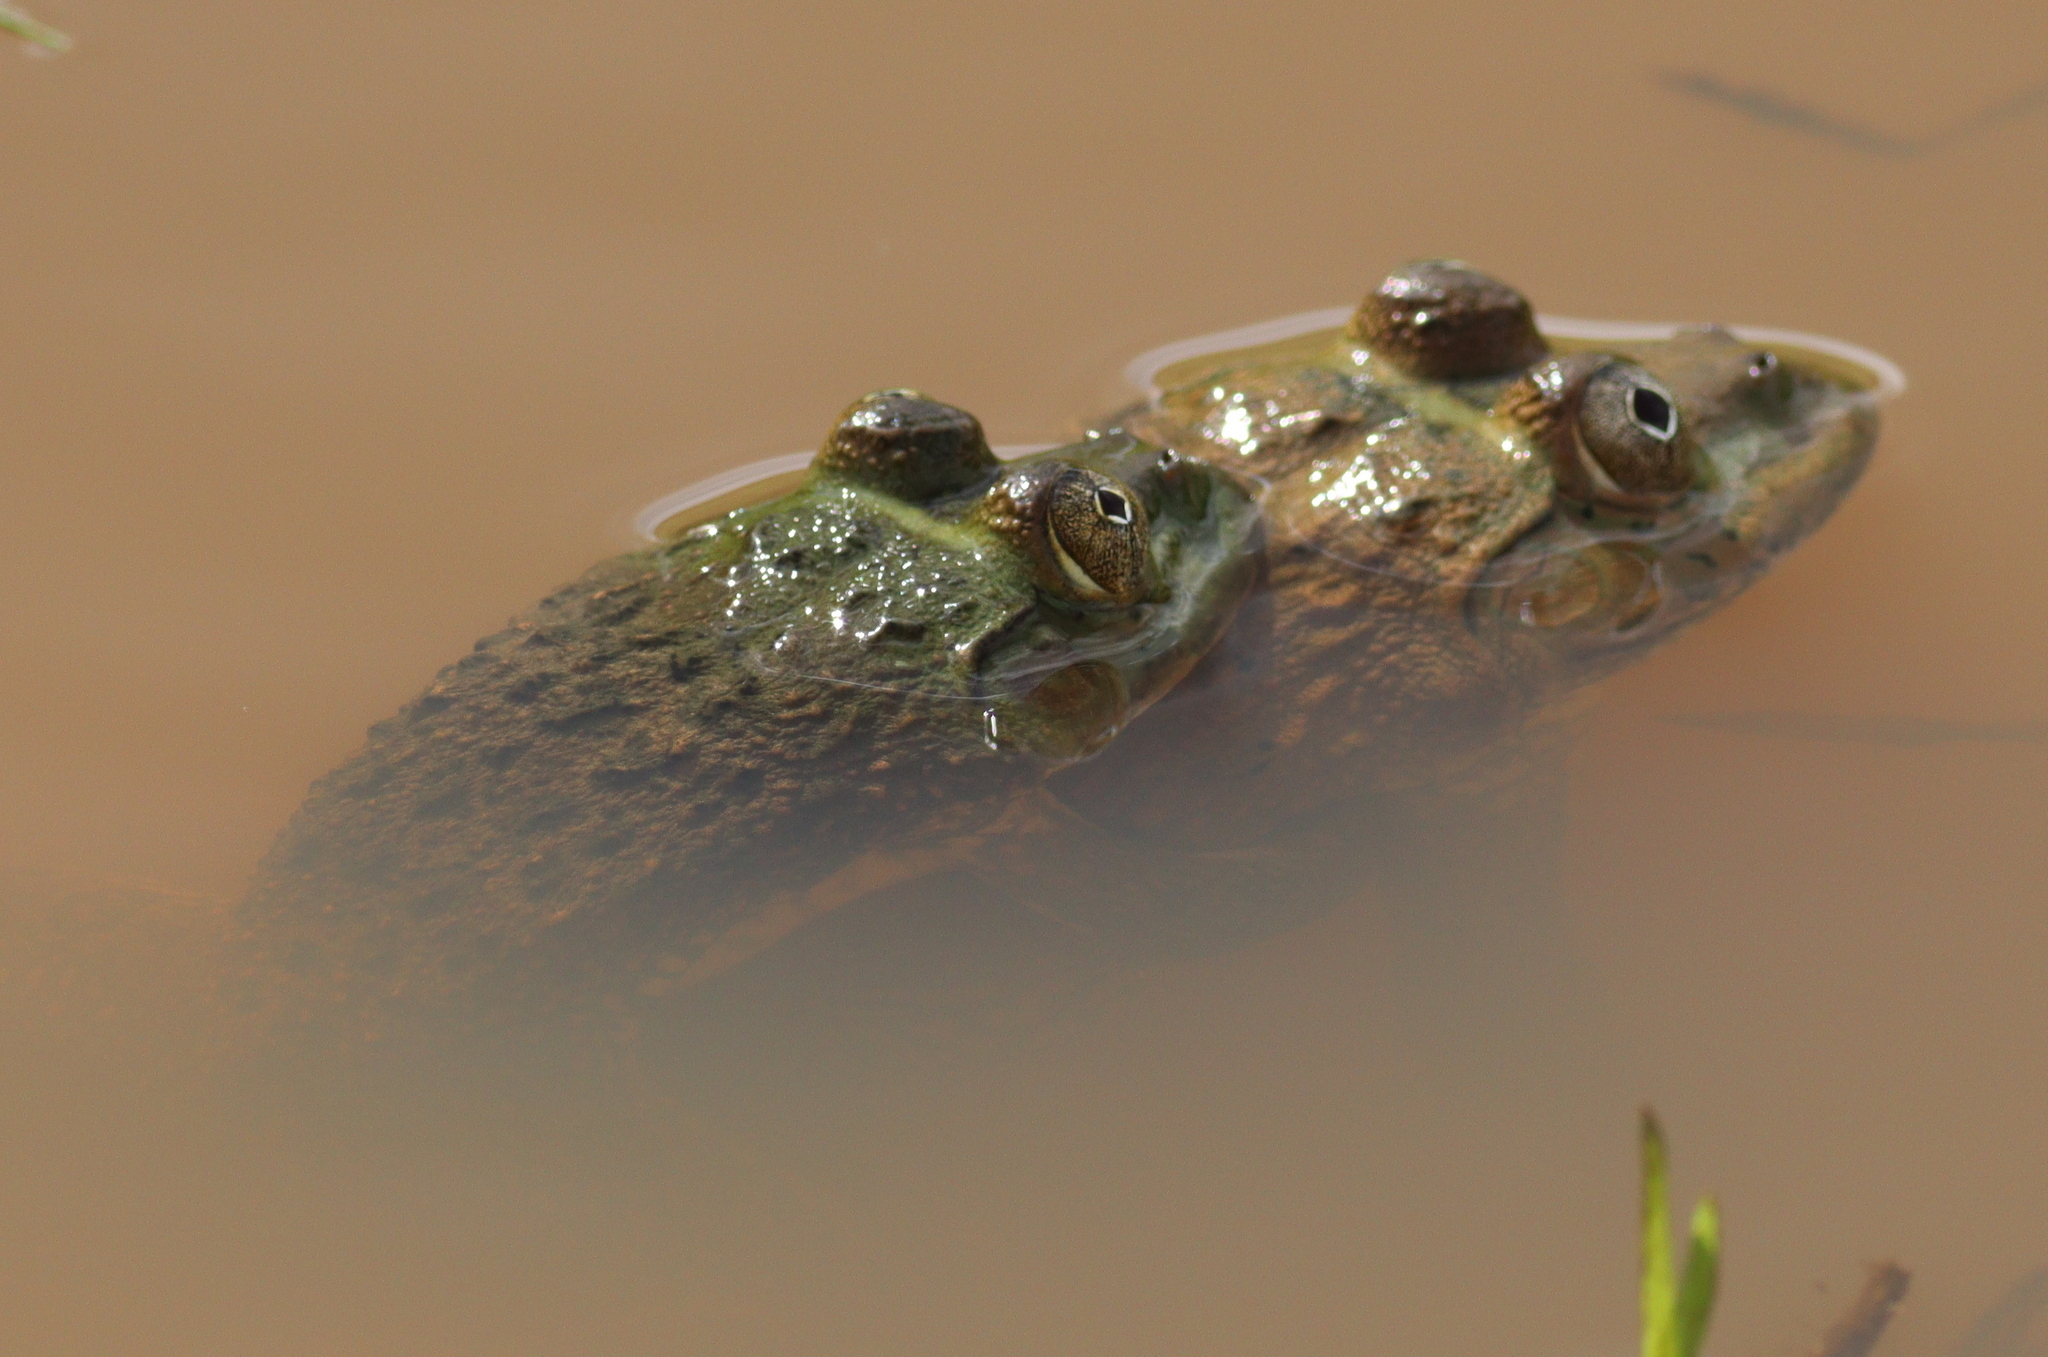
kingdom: Animalia
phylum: Chordata
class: Amphibia
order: Anura
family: Dicroglossidae
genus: Hoplobatrachus
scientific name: Hoplobatrachus occipitalis
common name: Eastern groove-crowned bullfrog
